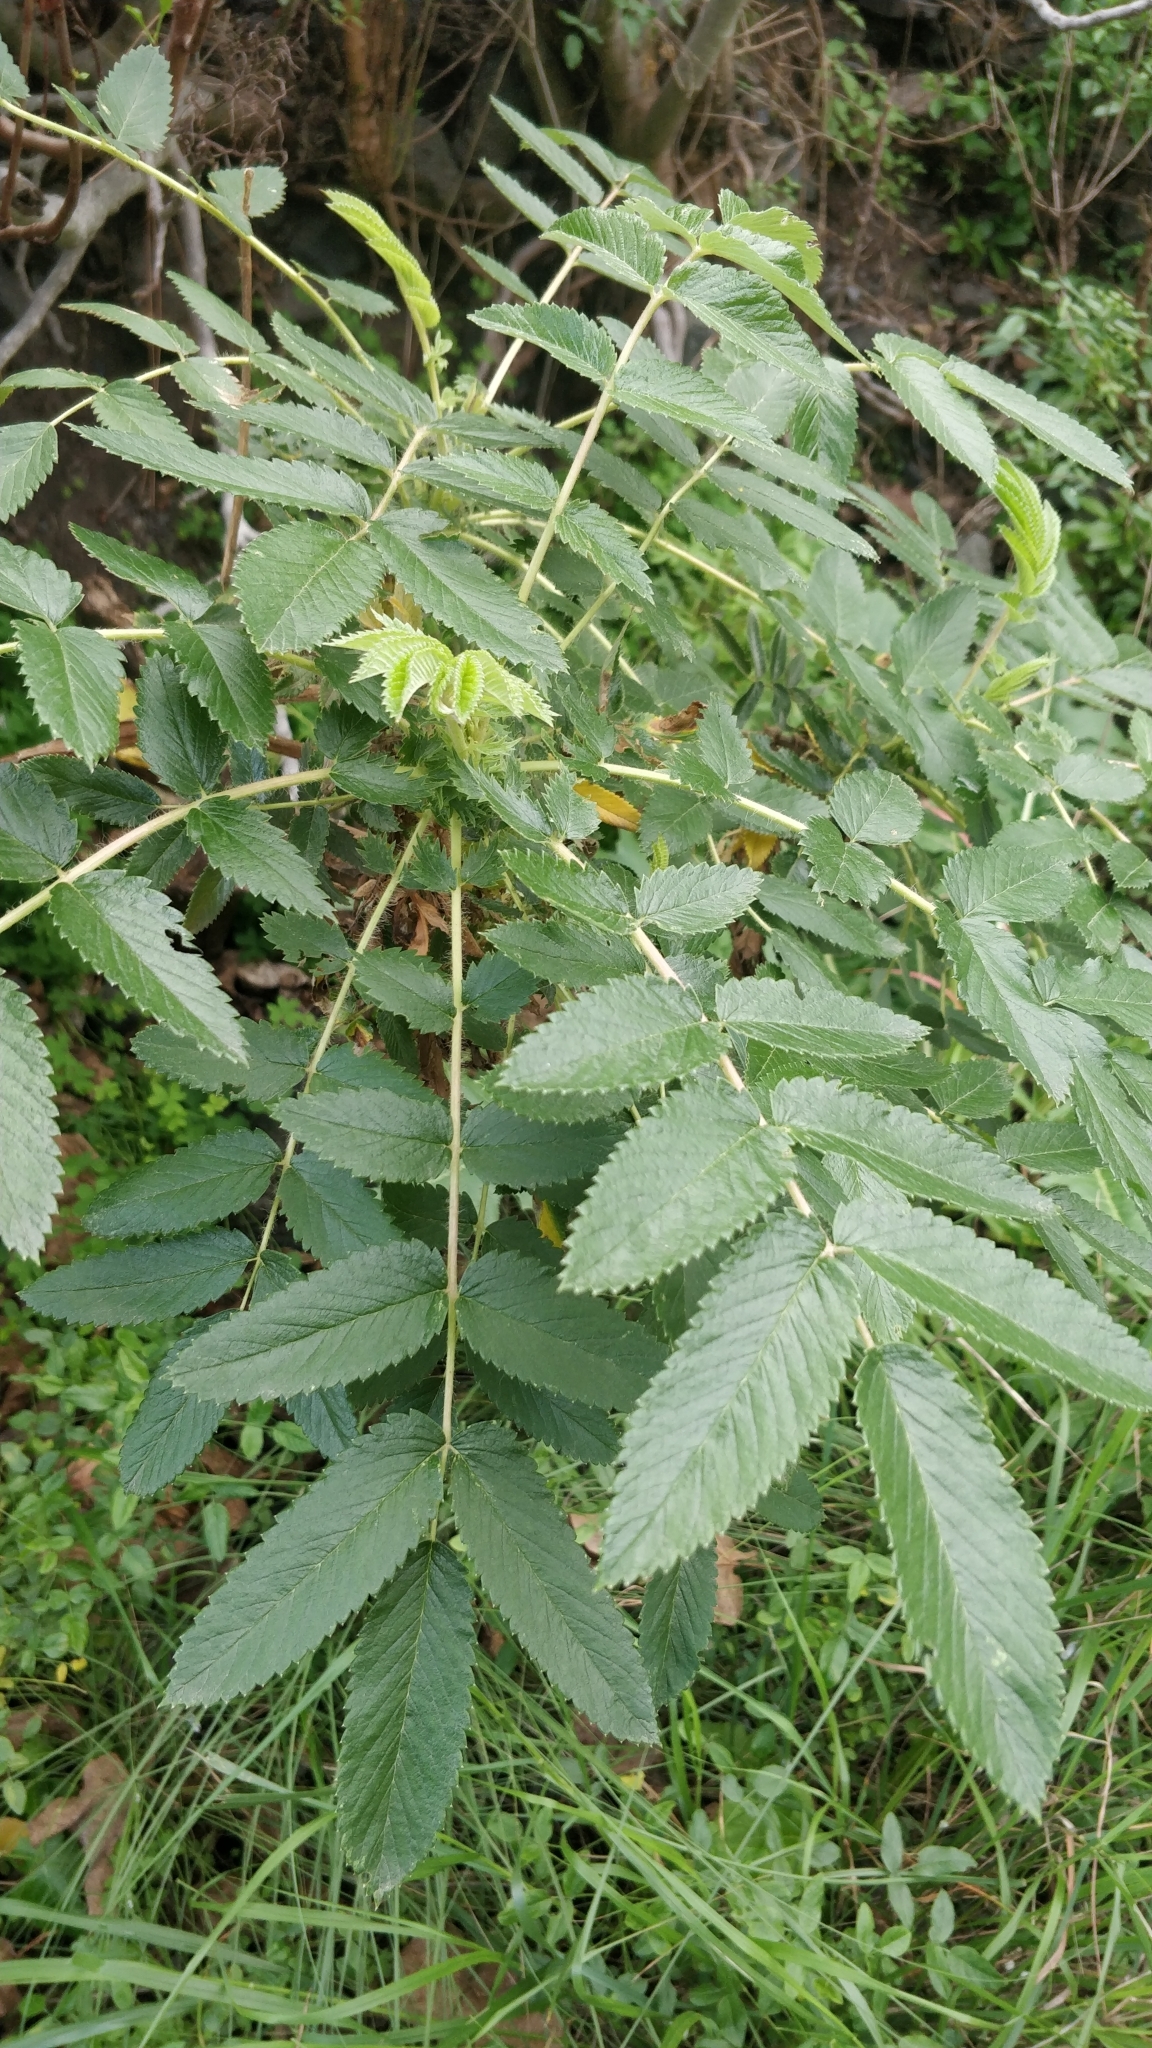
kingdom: Plantae
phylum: Tracheophyta
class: Magnoliopsida
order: Rosales
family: Rosaceae
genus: Bencomia
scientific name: Bencomia caudata
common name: Bencomia
